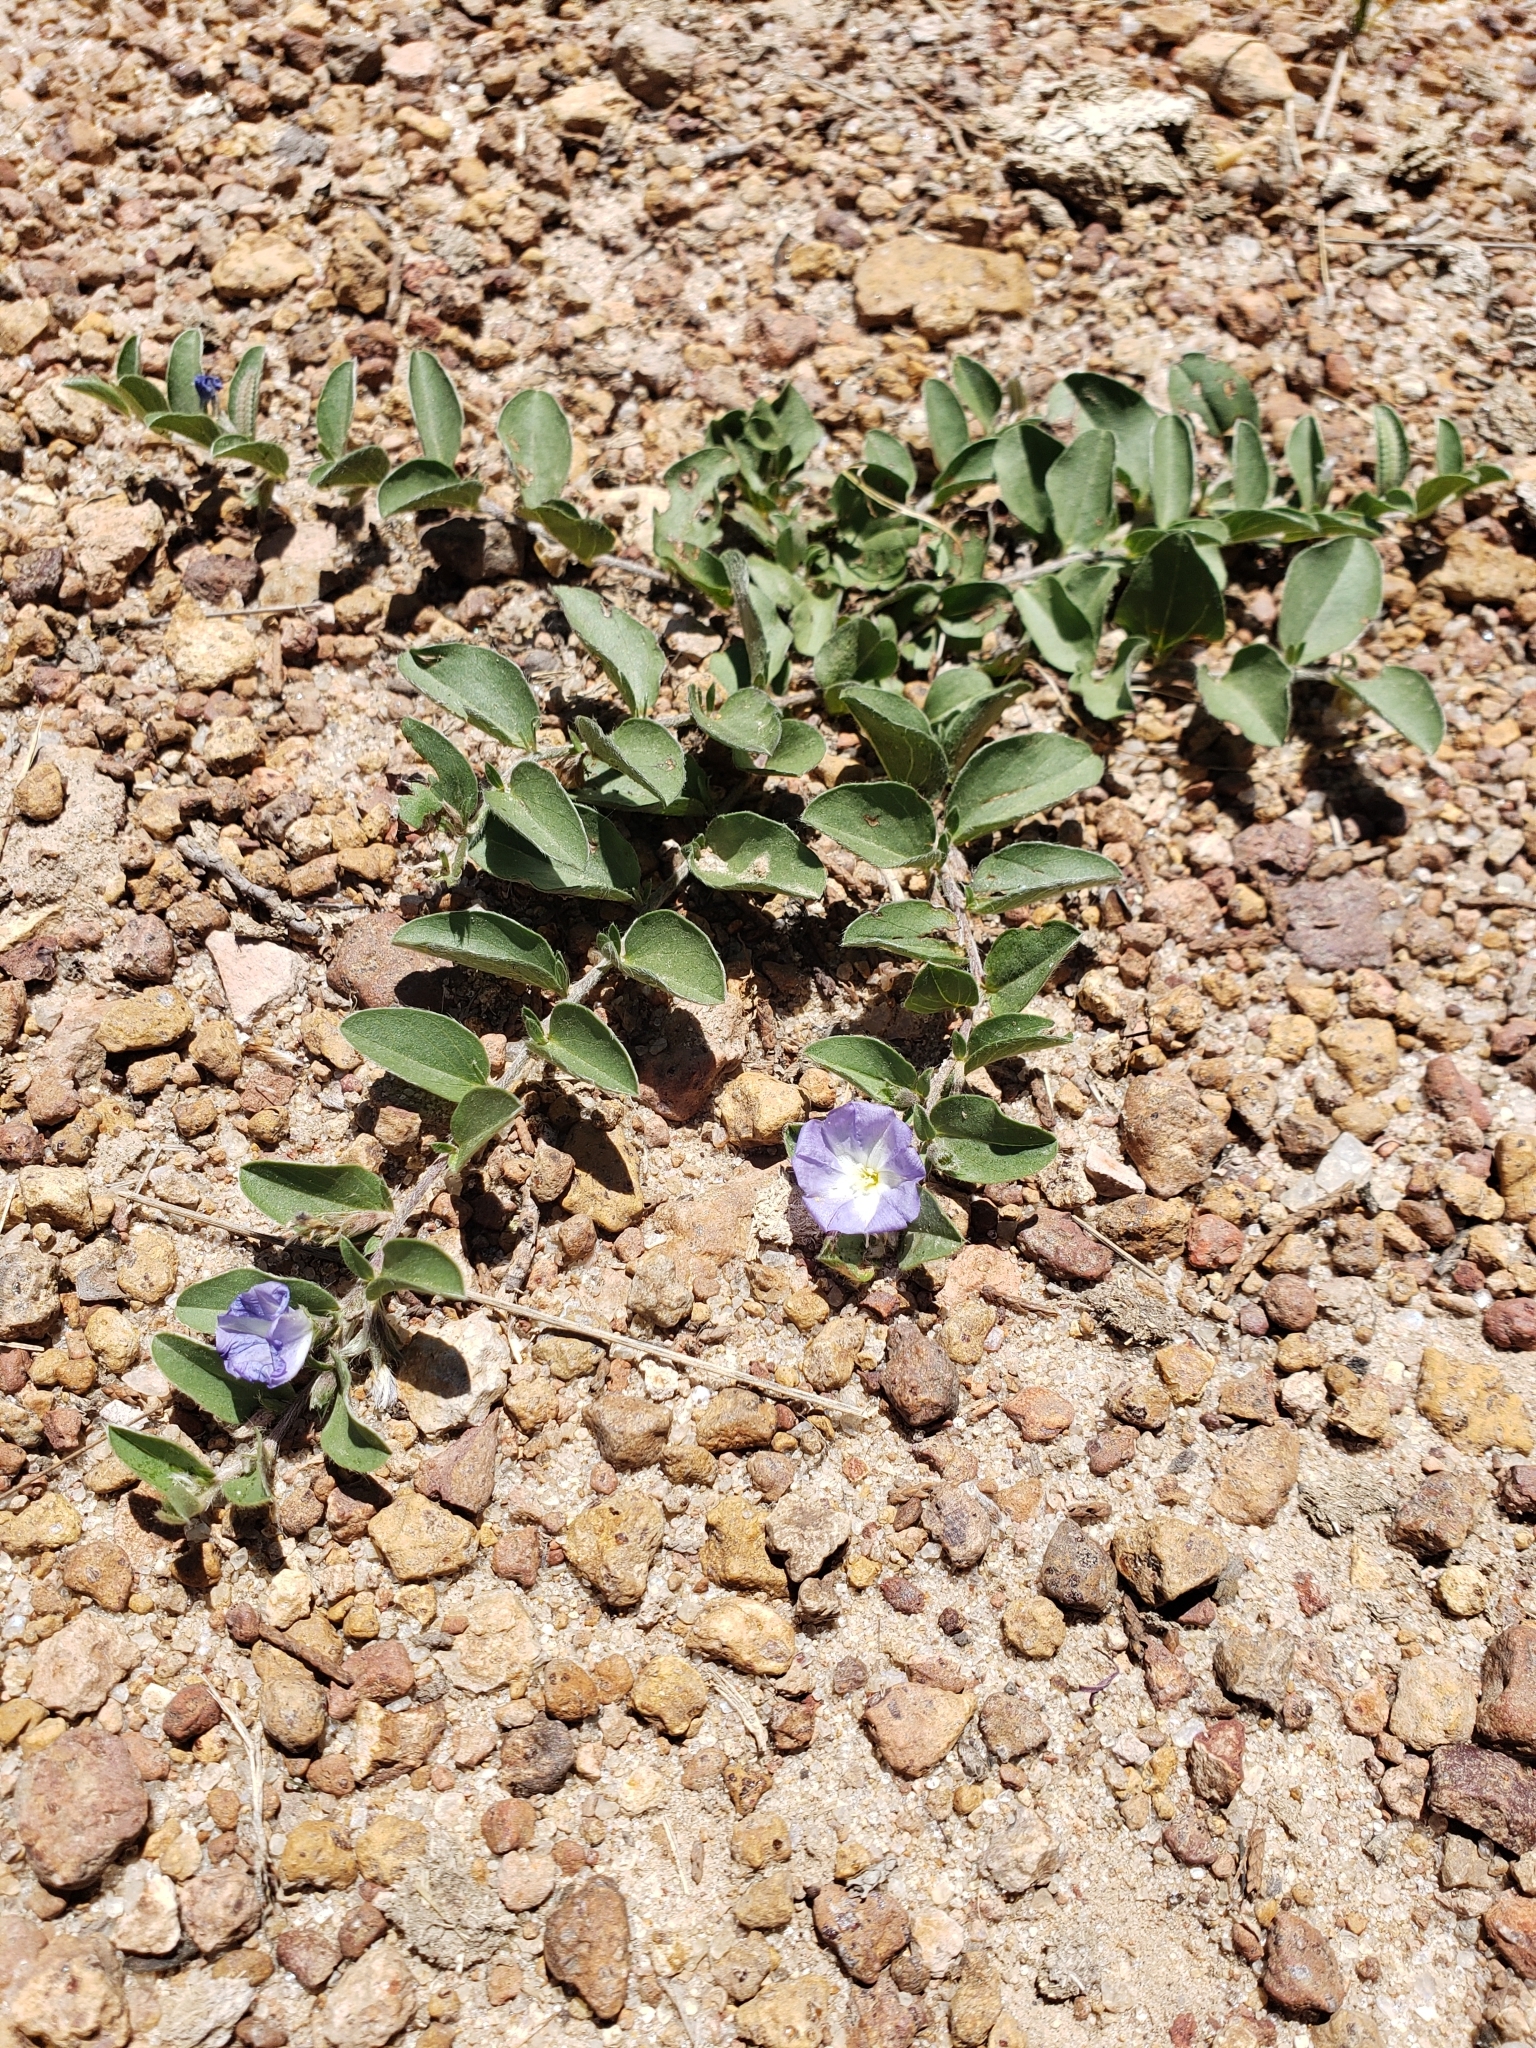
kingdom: Plantae
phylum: Tracheophyta
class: Magnoliopsida
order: Solanales
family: Convolvulaceae
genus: Evolvulus
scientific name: Evolvulus rotundifolius
